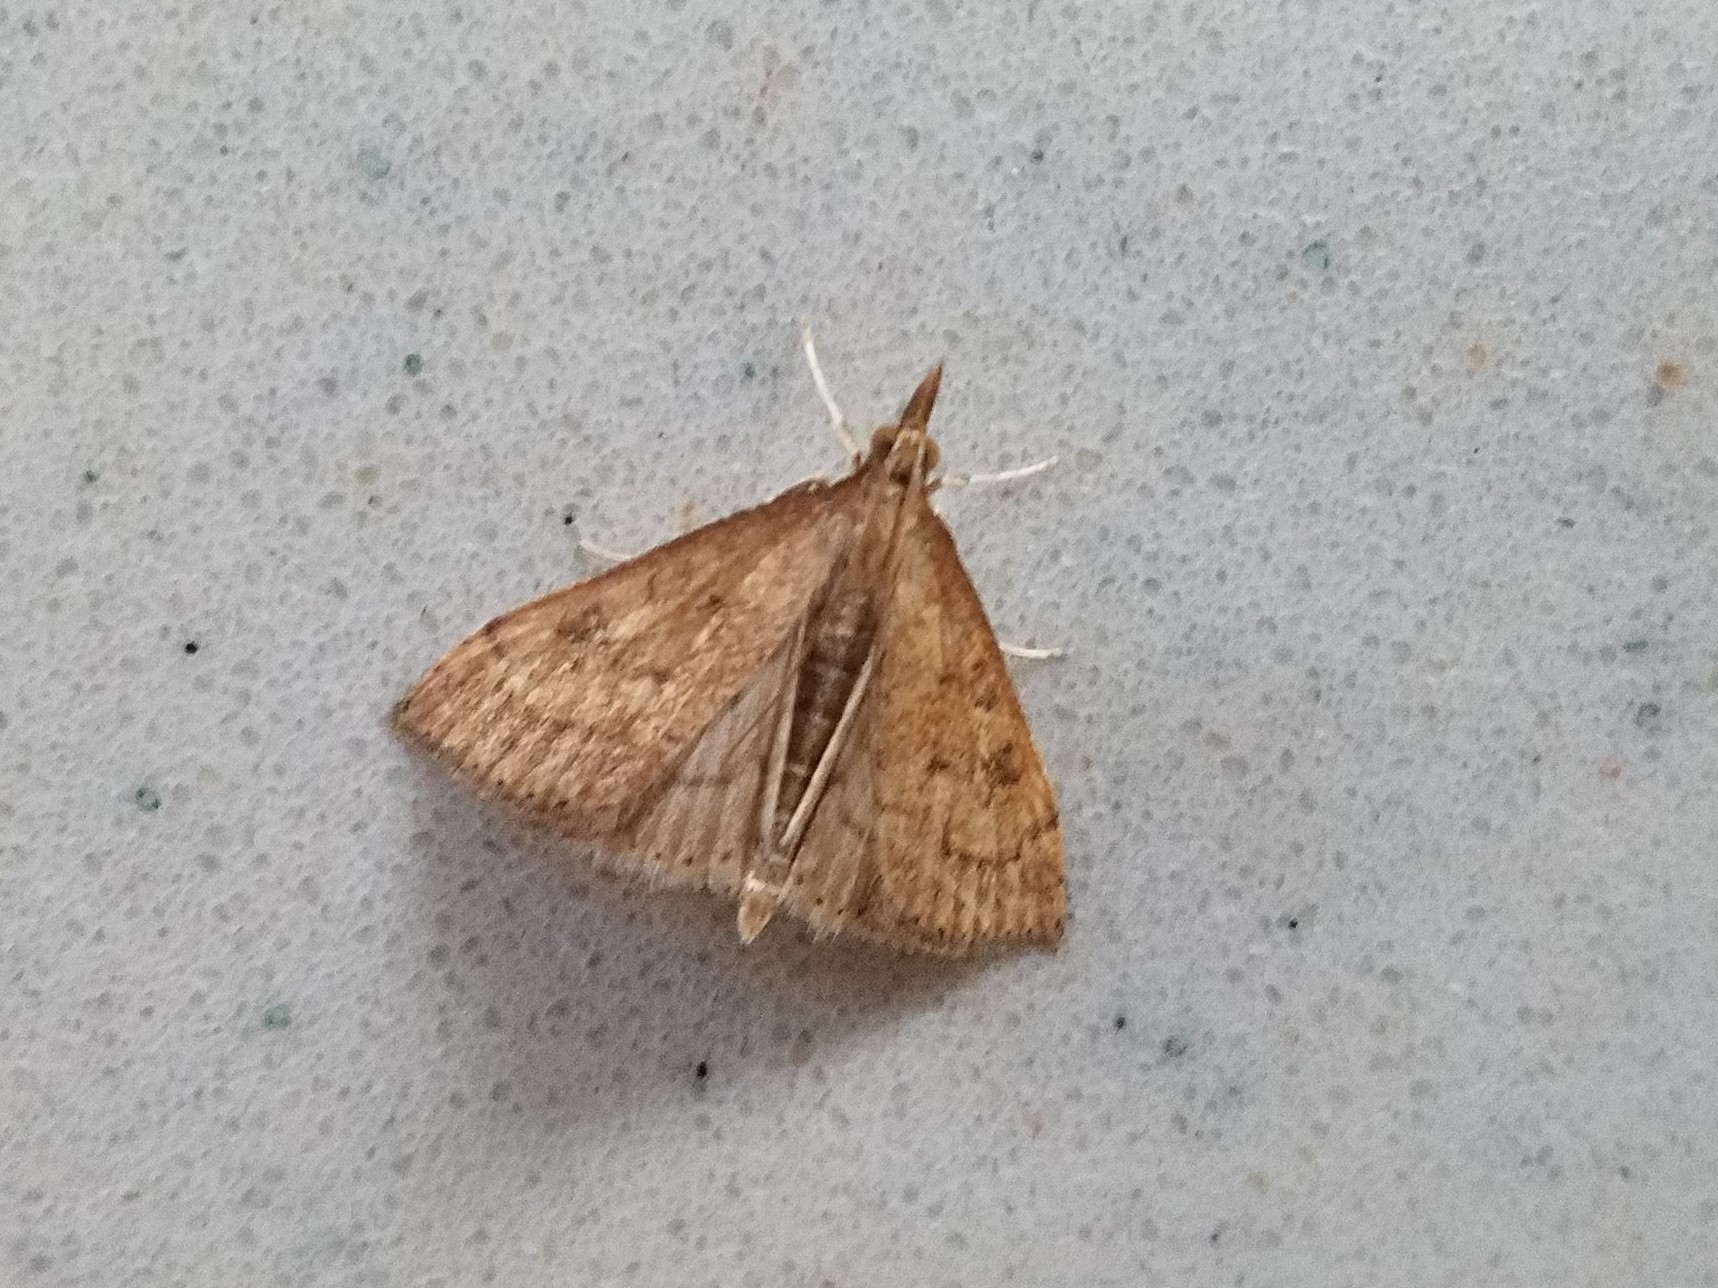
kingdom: Animalia
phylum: Arthropoda
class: Insecta
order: Lepidoptera
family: Crambidae
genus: Udea
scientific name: Udea rubigalis
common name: Celery leaftier moth
